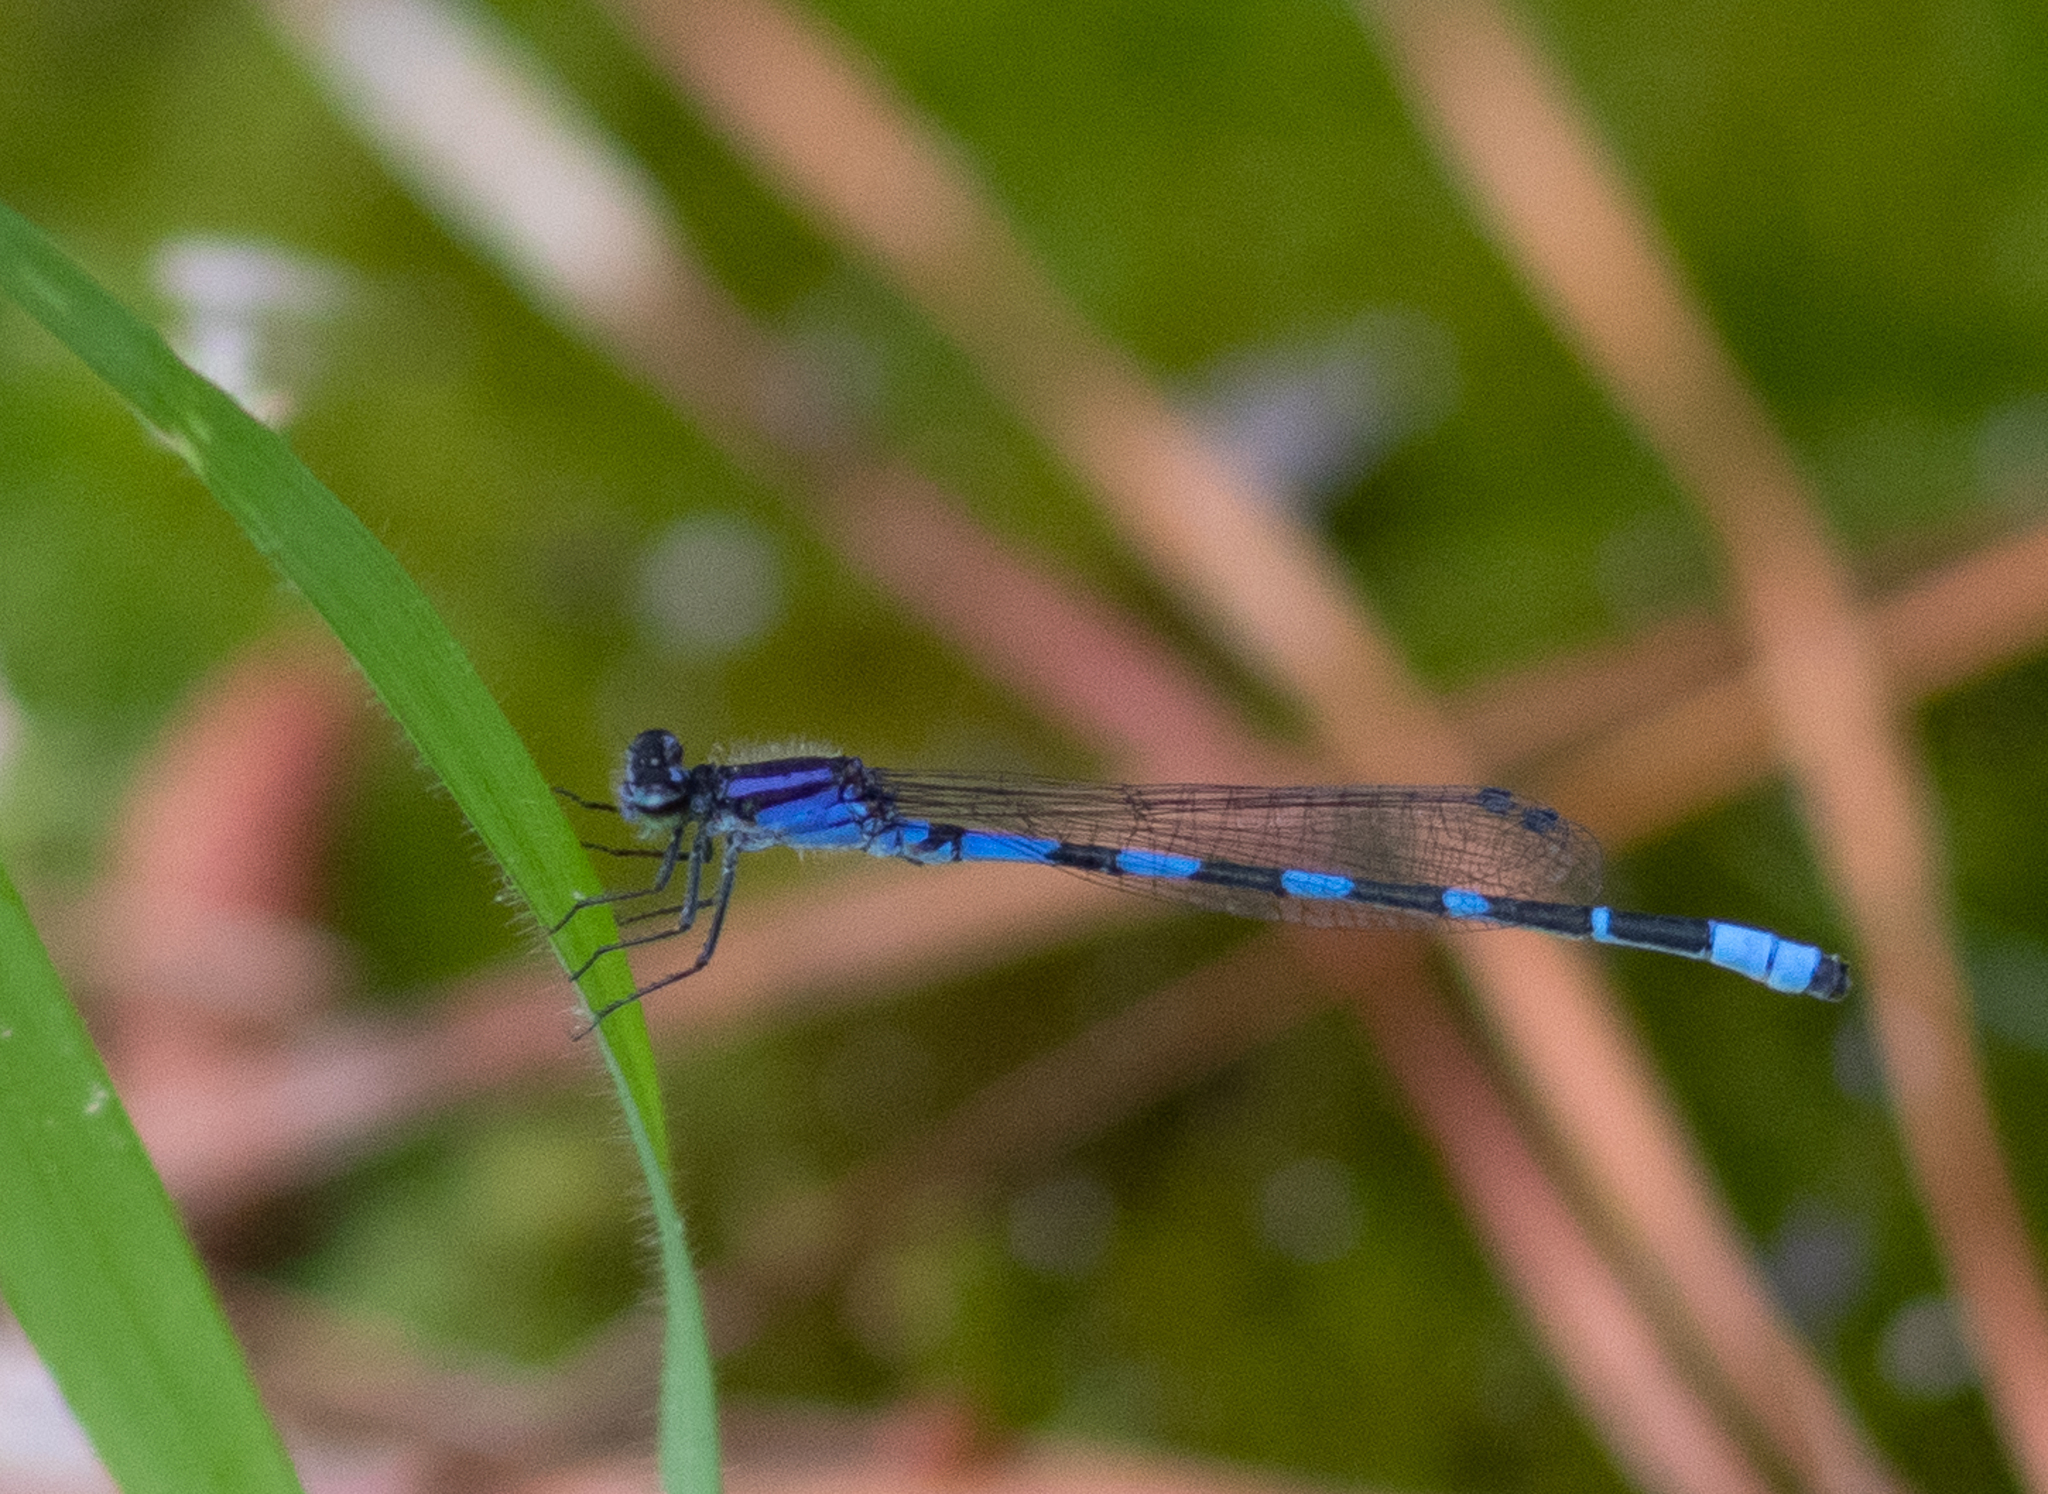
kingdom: Animalia
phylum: Arthropoda
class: Insecta
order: Odonata
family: Coenagrionidae
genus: Enallagma
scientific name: Enallagma minusculum
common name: Little bluet
